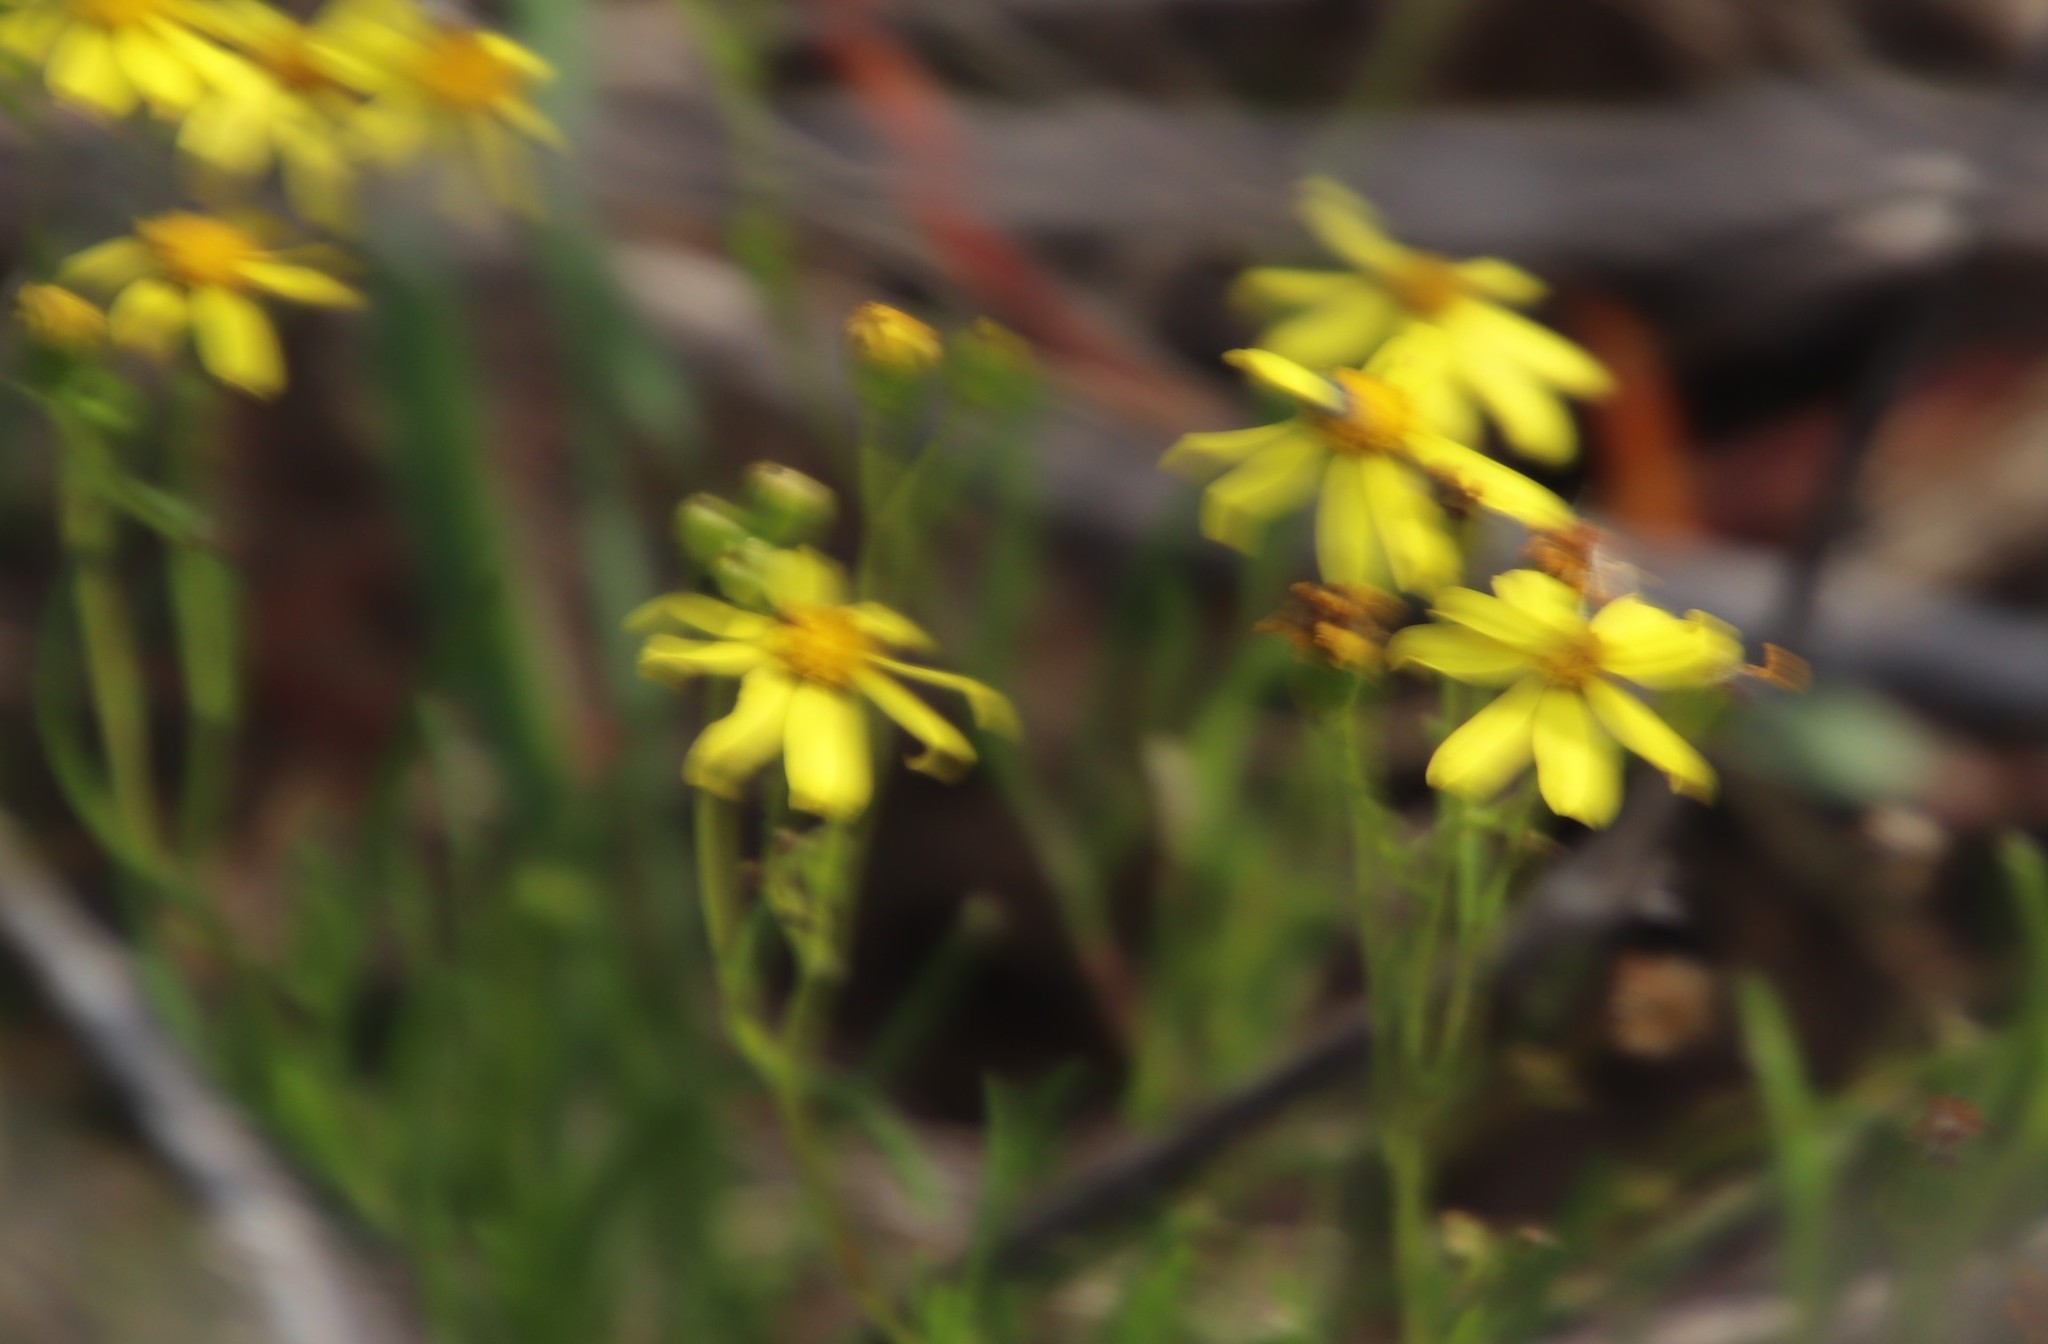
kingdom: Plantae
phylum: Tracheophyta
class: Magnoliopsida
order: Asterales
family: Asteraceae
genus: Senecio
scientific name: Senecio hastatus
